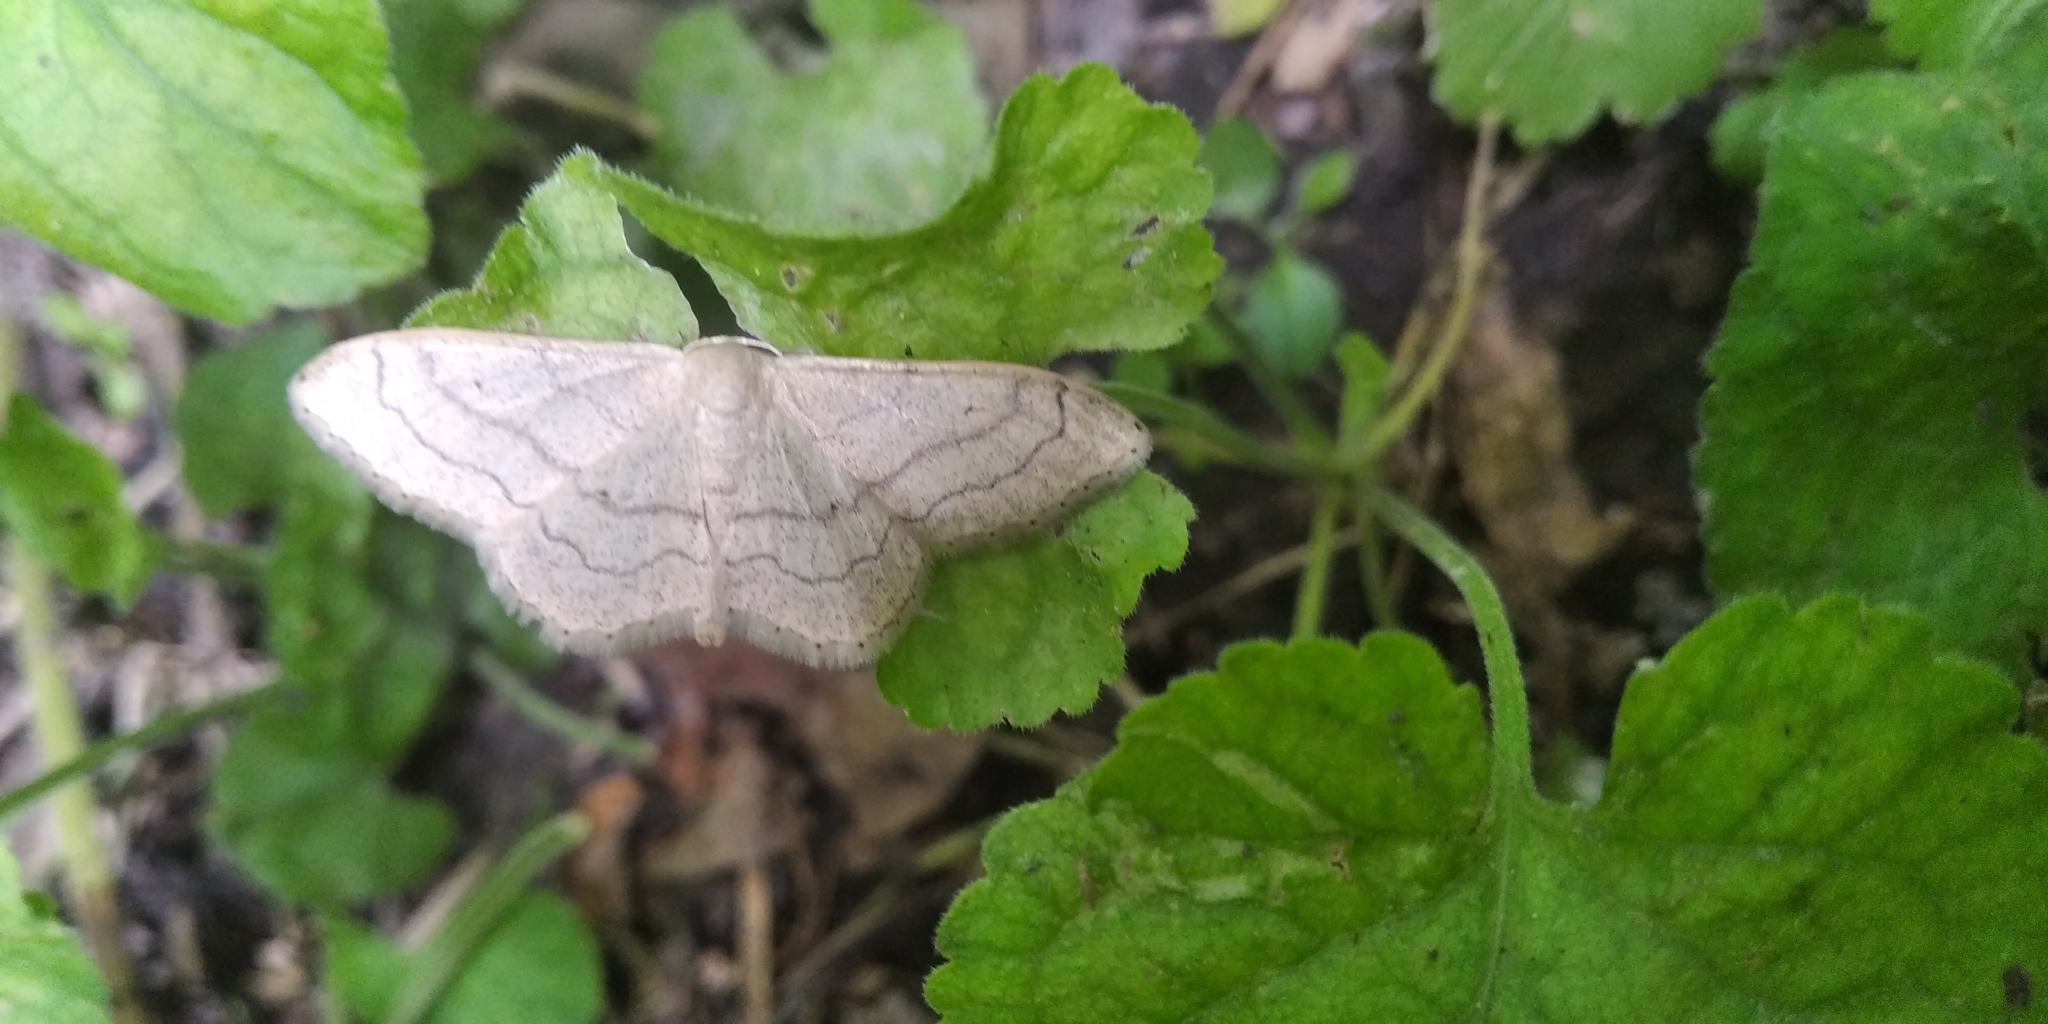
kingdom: Animalia
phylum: Arthropoda
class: Insecta
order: Lepidoptera
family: Geometridae
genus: Idaea
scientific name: Idaea aversata
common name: Riband wave
